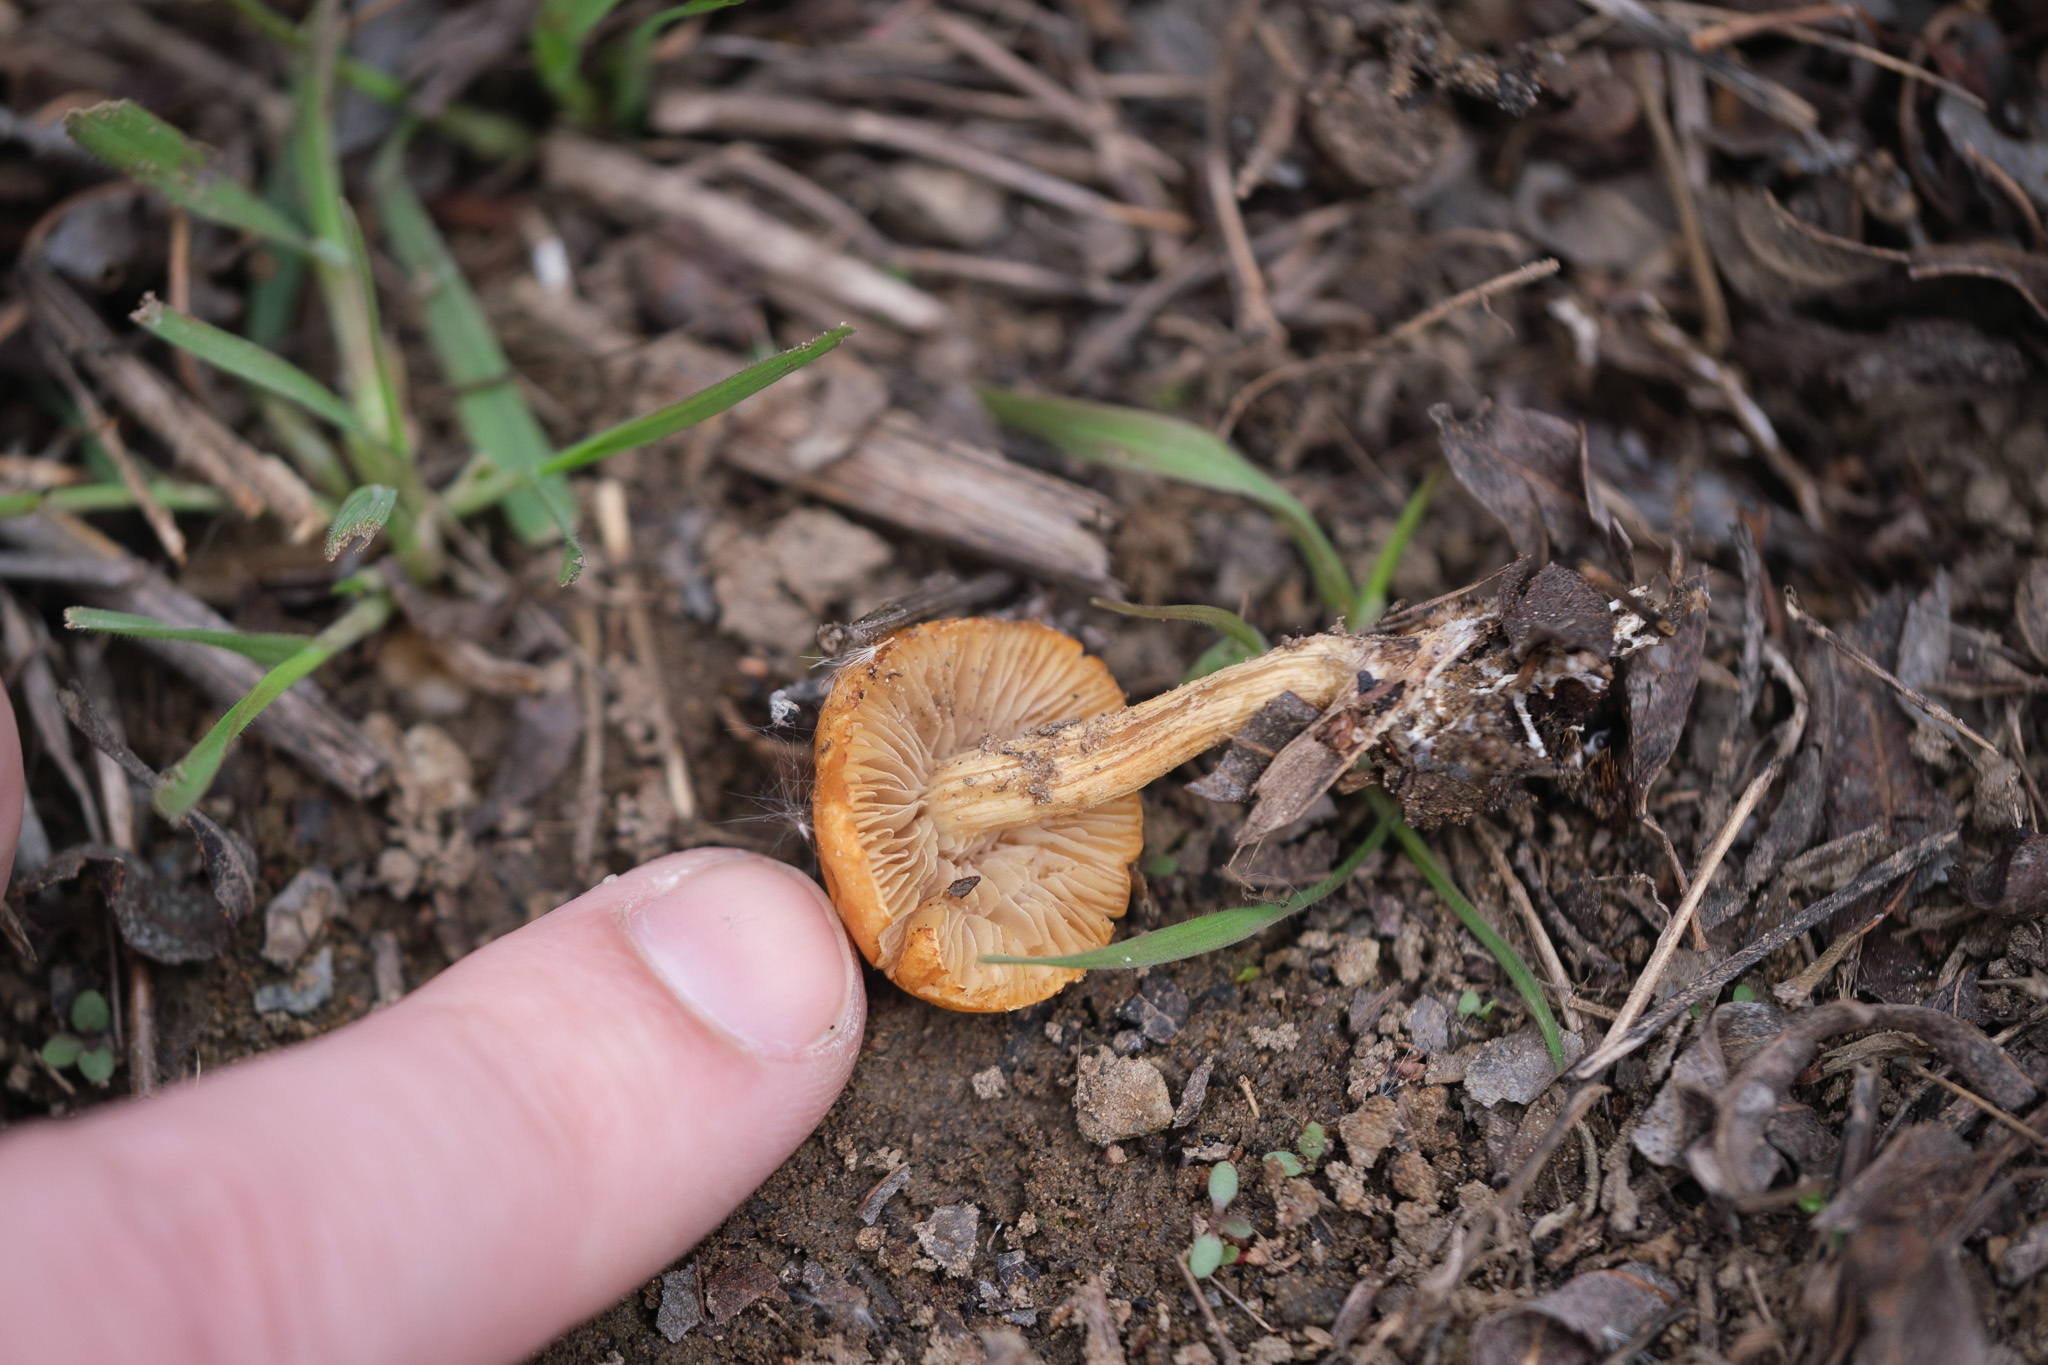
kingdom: Fungi
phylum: Basidiomycota
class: Agaricomycetes
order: Agaricales
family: Strophariaceae
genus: Agrocybe
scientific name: Agrocybe pediades
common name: Common fieldcap
